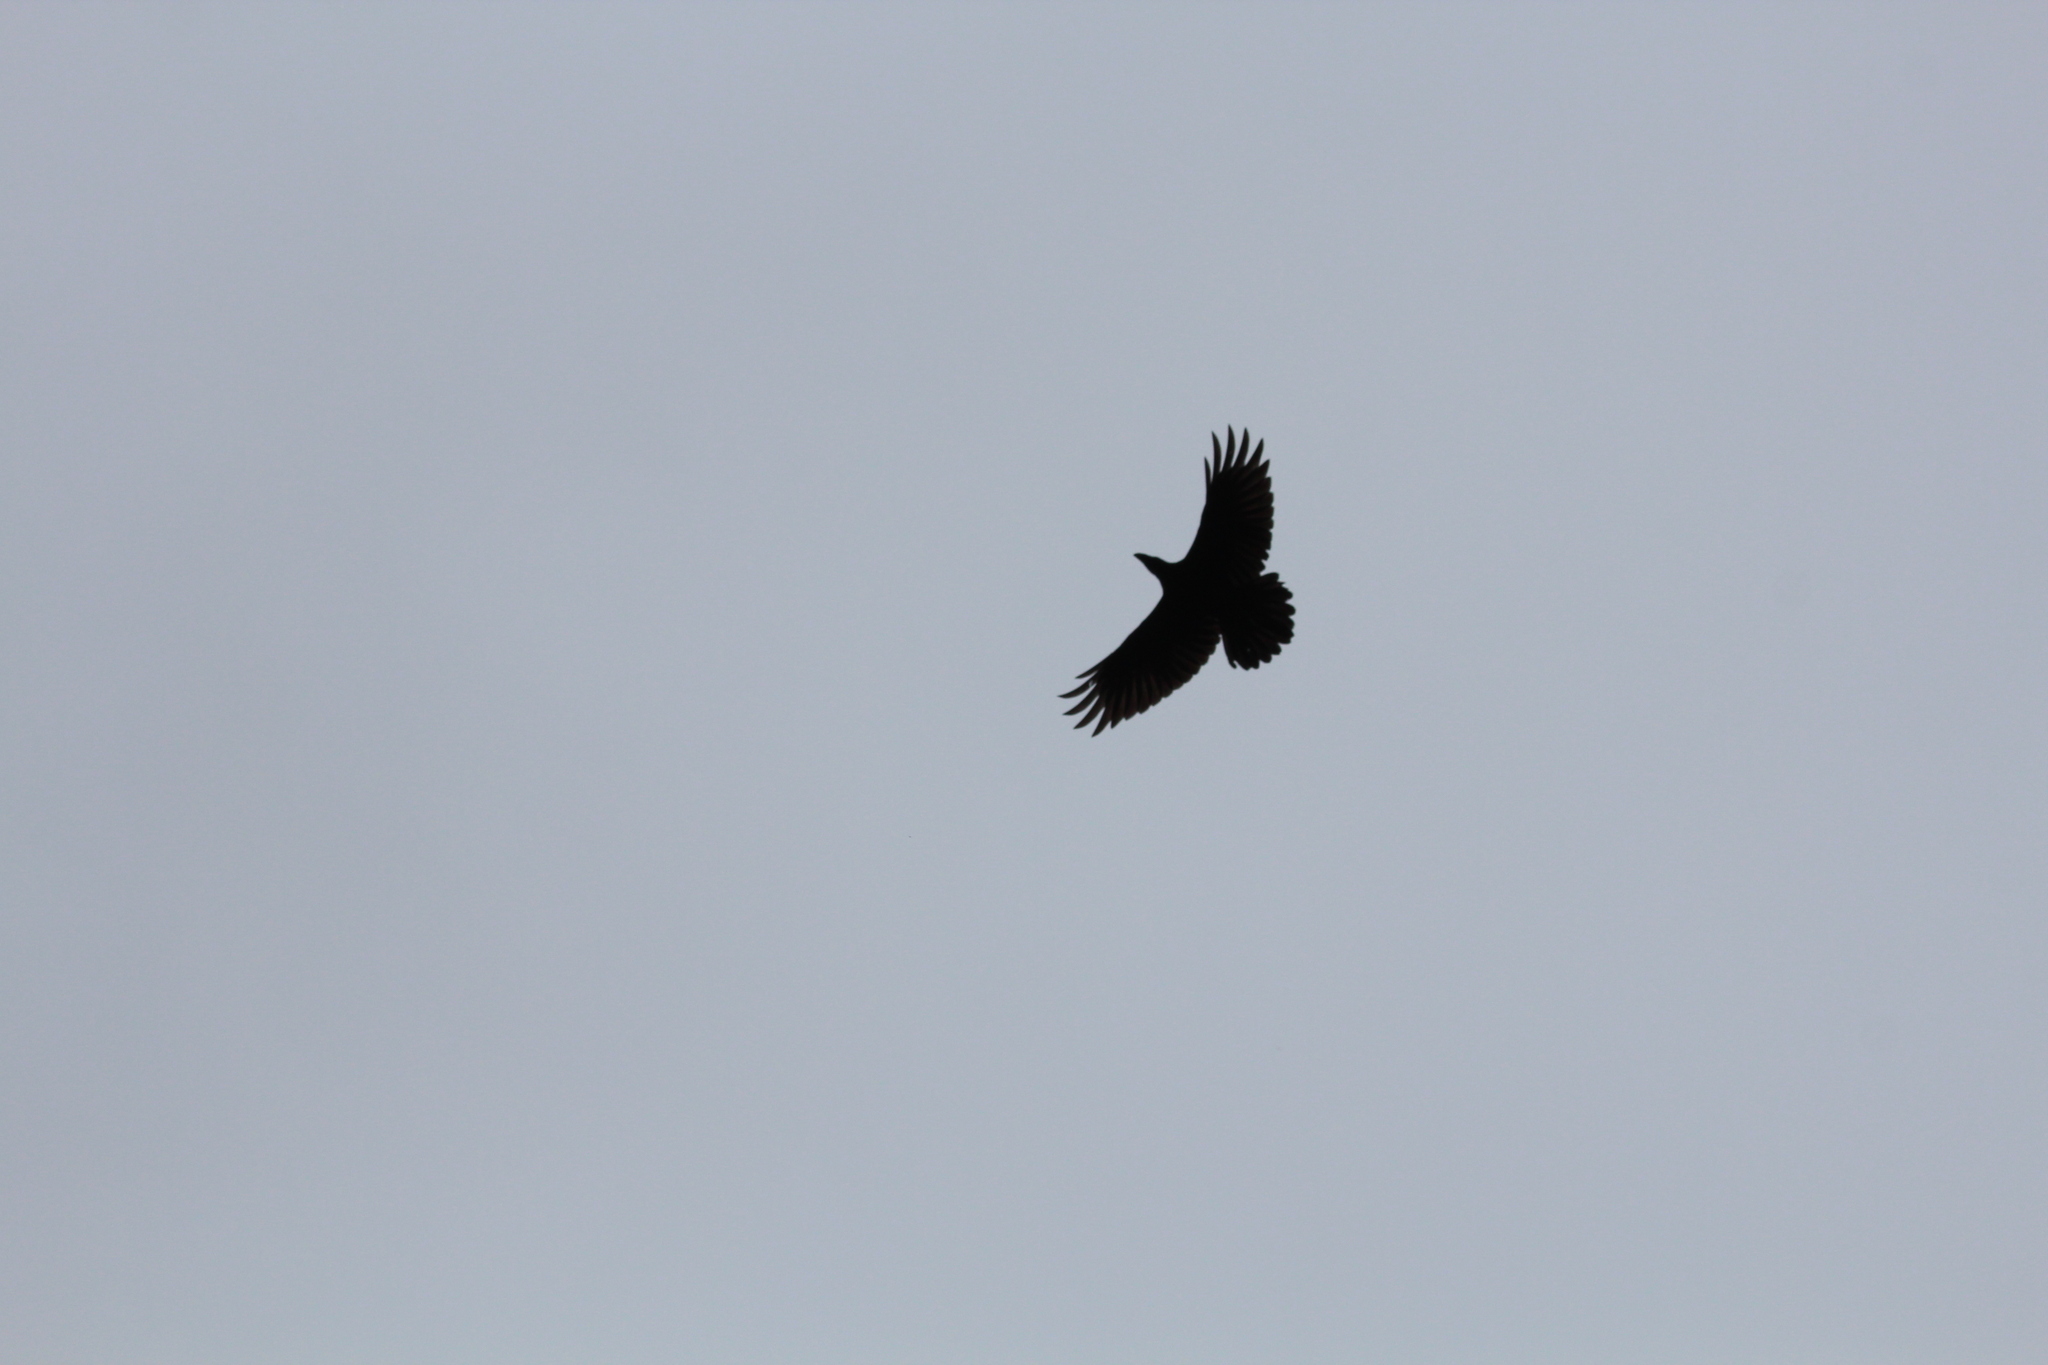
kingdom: Animalia
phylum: Chordata
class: Aves
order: Passeriformes
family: Corvidae
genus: Corvus
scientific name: Corvus corax
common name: Common raven
